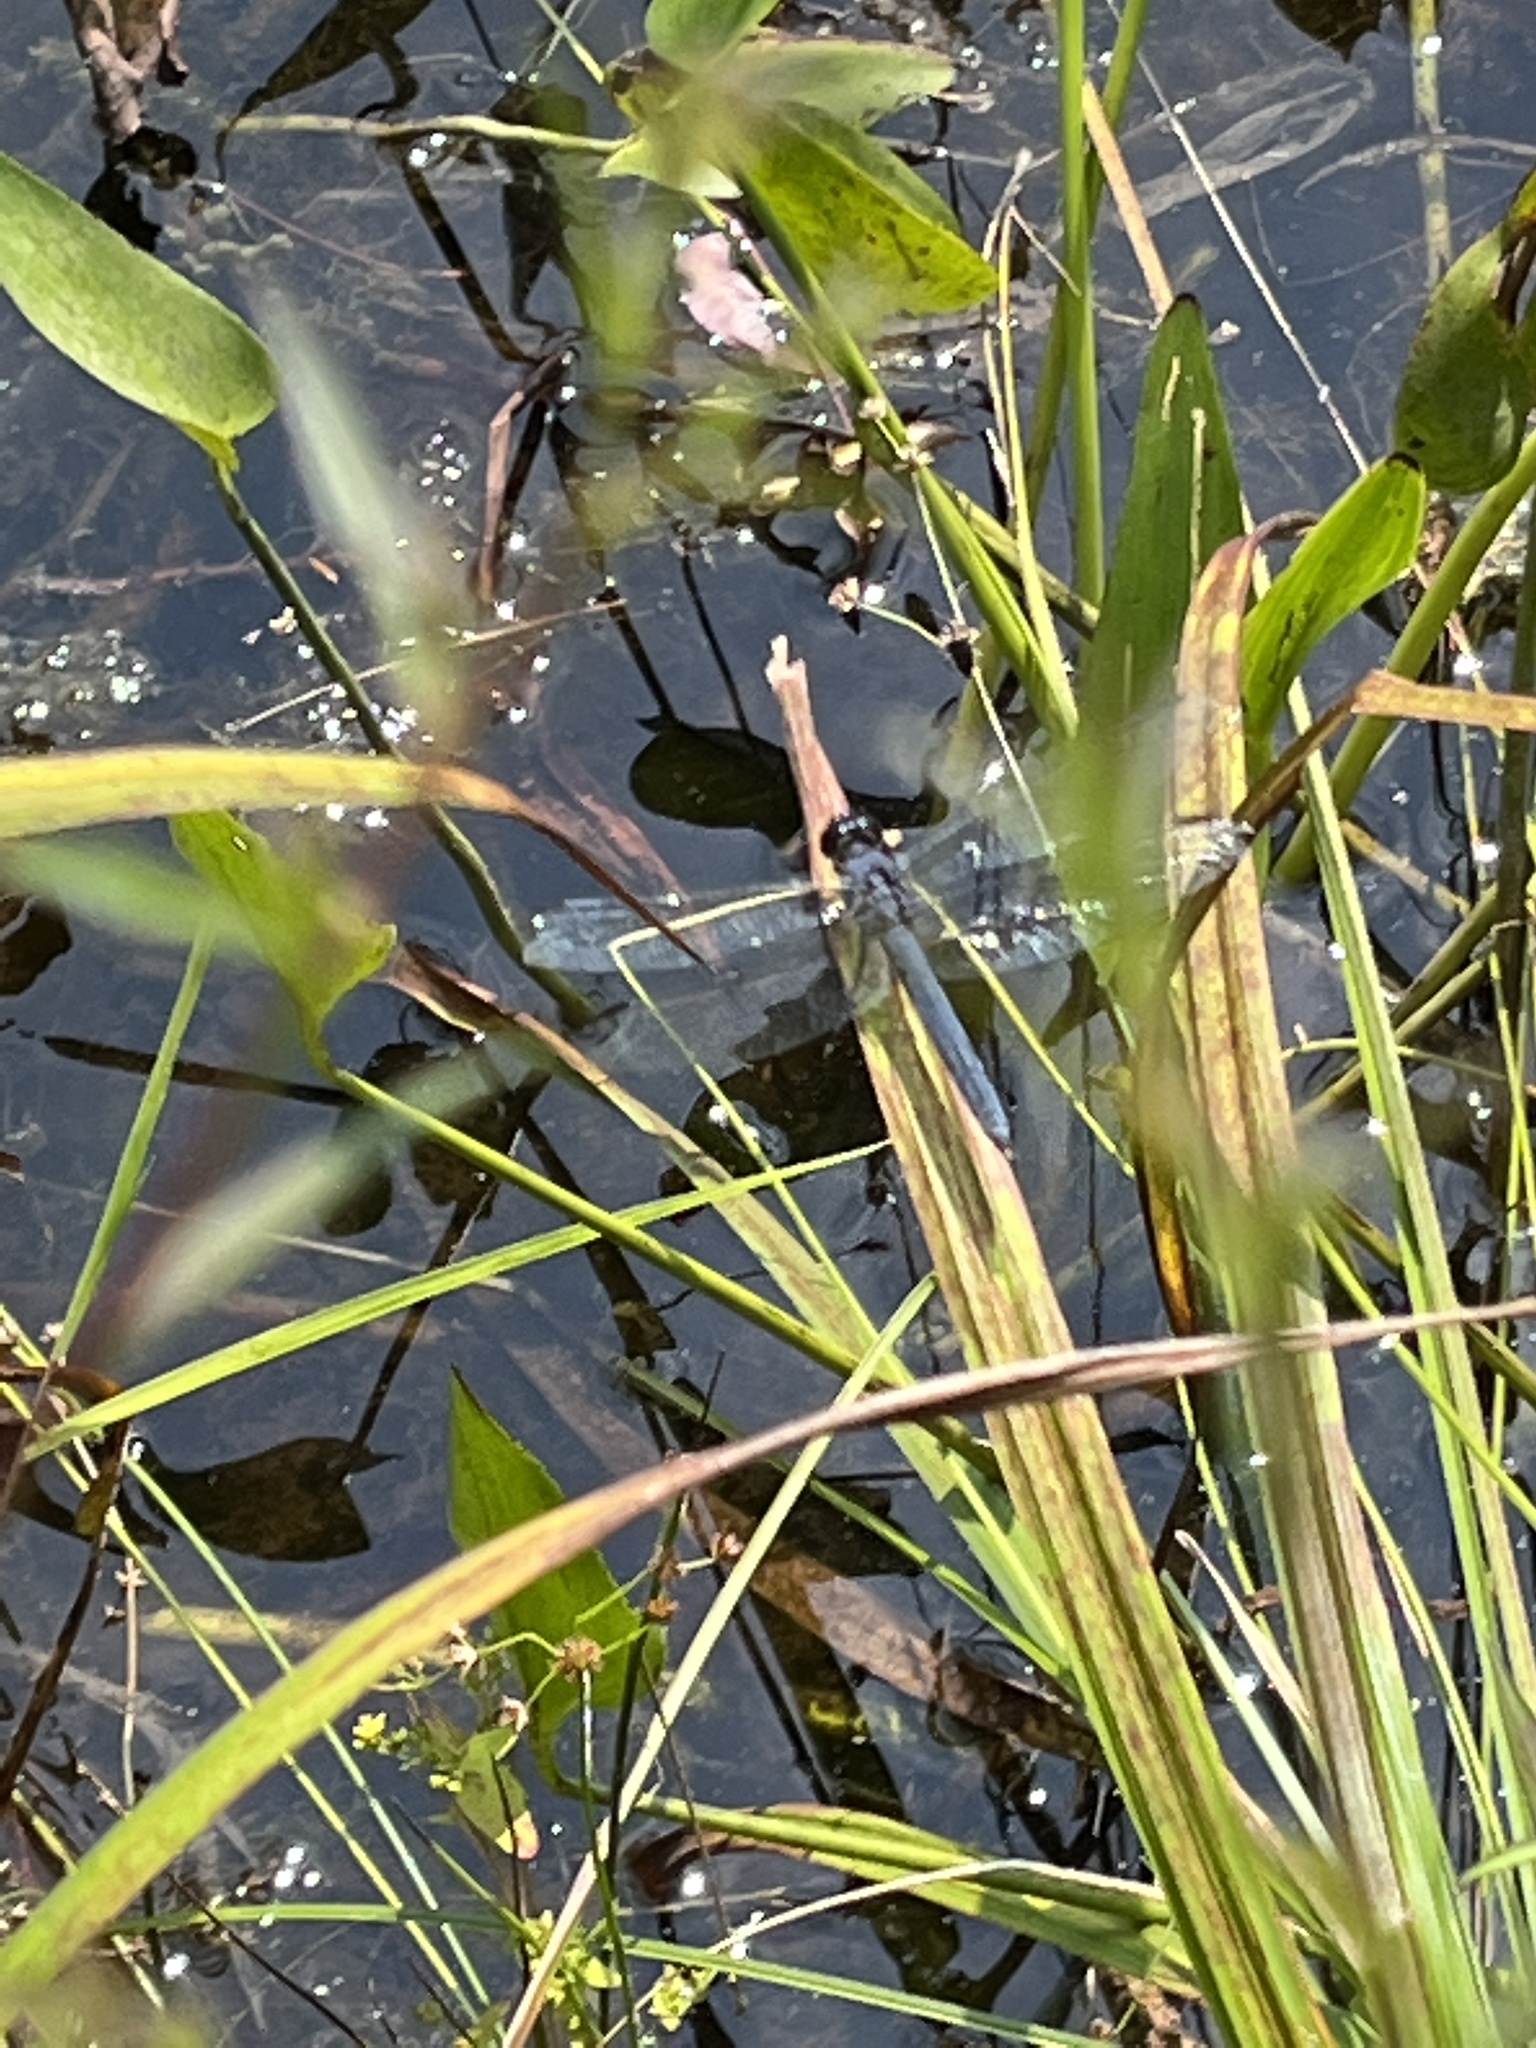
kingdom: Animalia
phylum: Arthropoda
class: Insecta
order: Odonata
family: Libellulidae
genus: Libellula
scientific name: Libellula incesta
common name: Slaty skimmer
